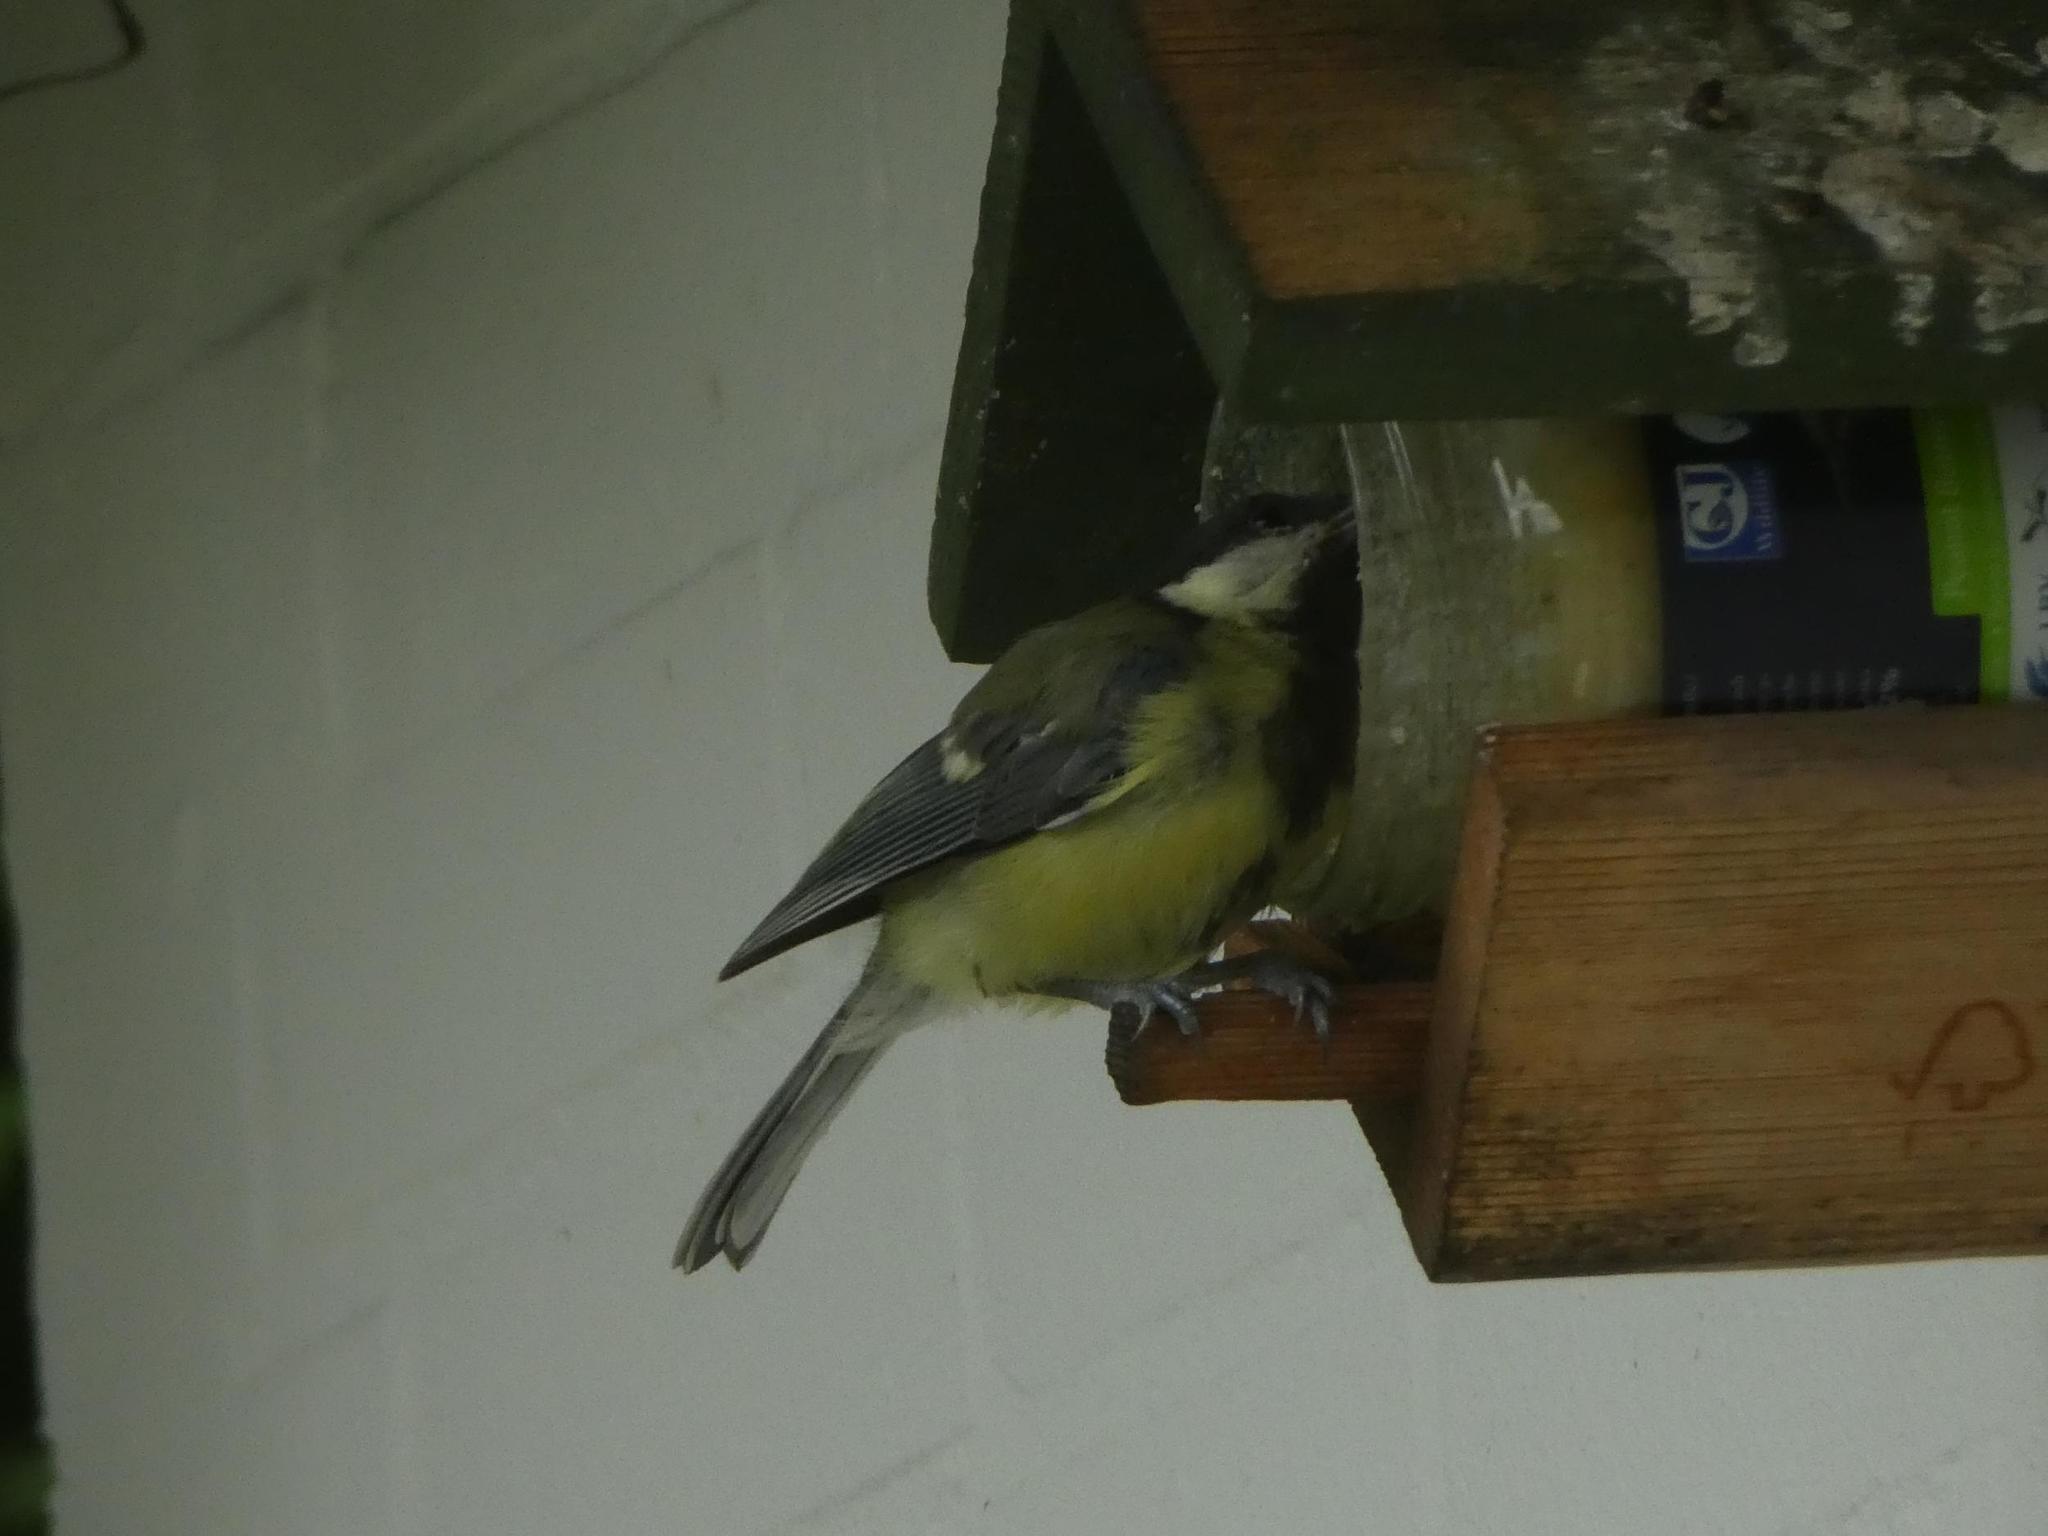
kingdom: Animalia
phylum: Chordata
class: Aves
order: Passeriformes
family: Paridae
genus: Parus
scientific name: Parus major
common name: Great tit
